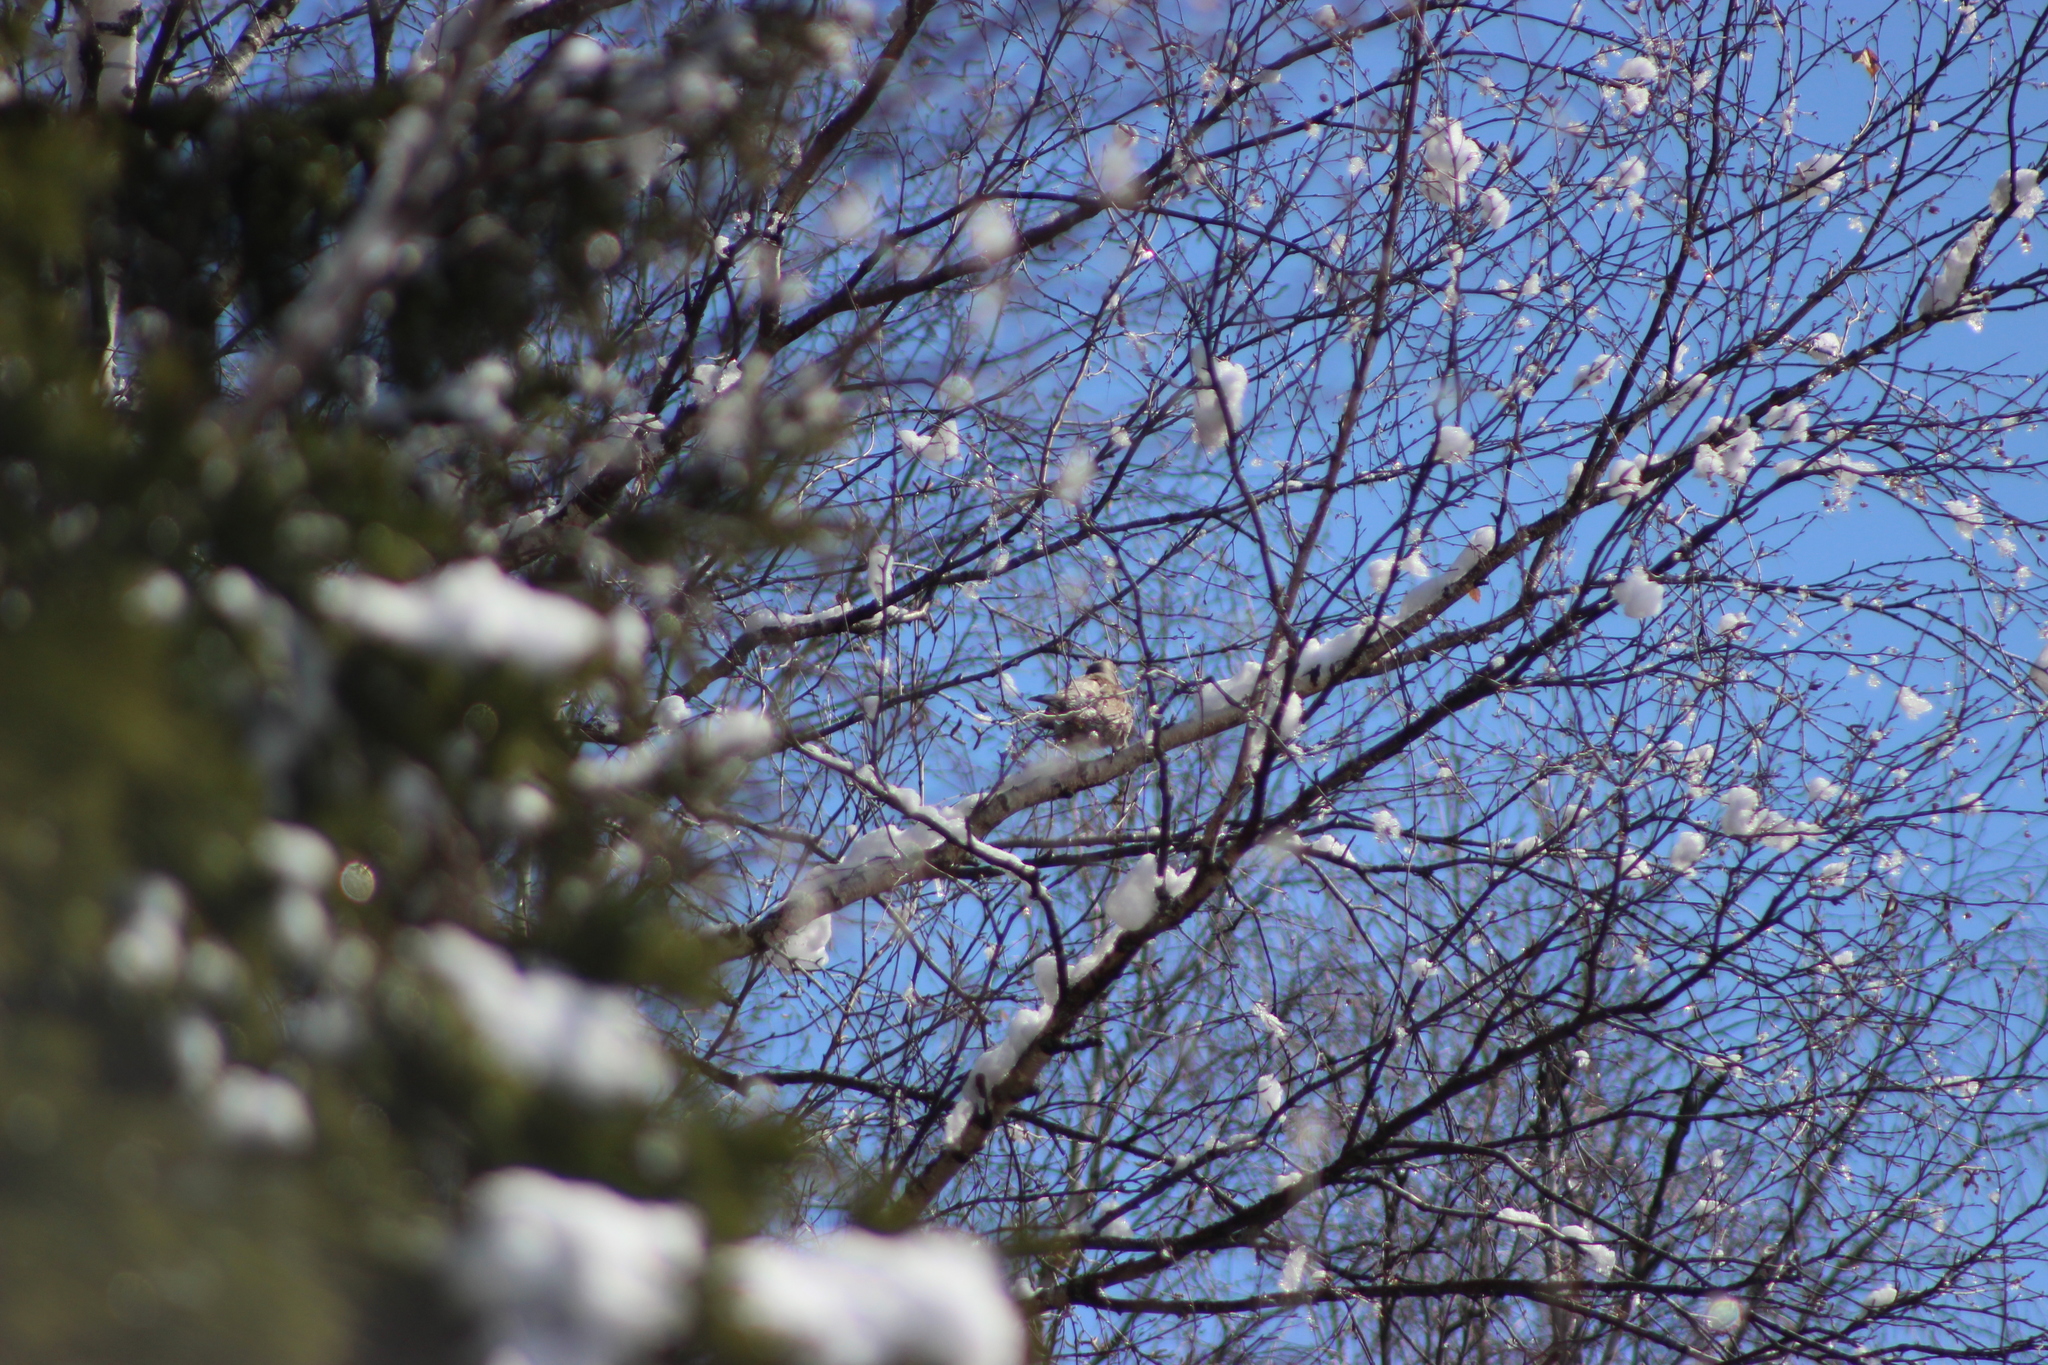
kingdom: Animalia
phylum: Chordata
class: Aves
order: Passeriformes
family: Turdidae
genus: Turdus
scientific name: Turdus pilaris
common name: Fieldfare
